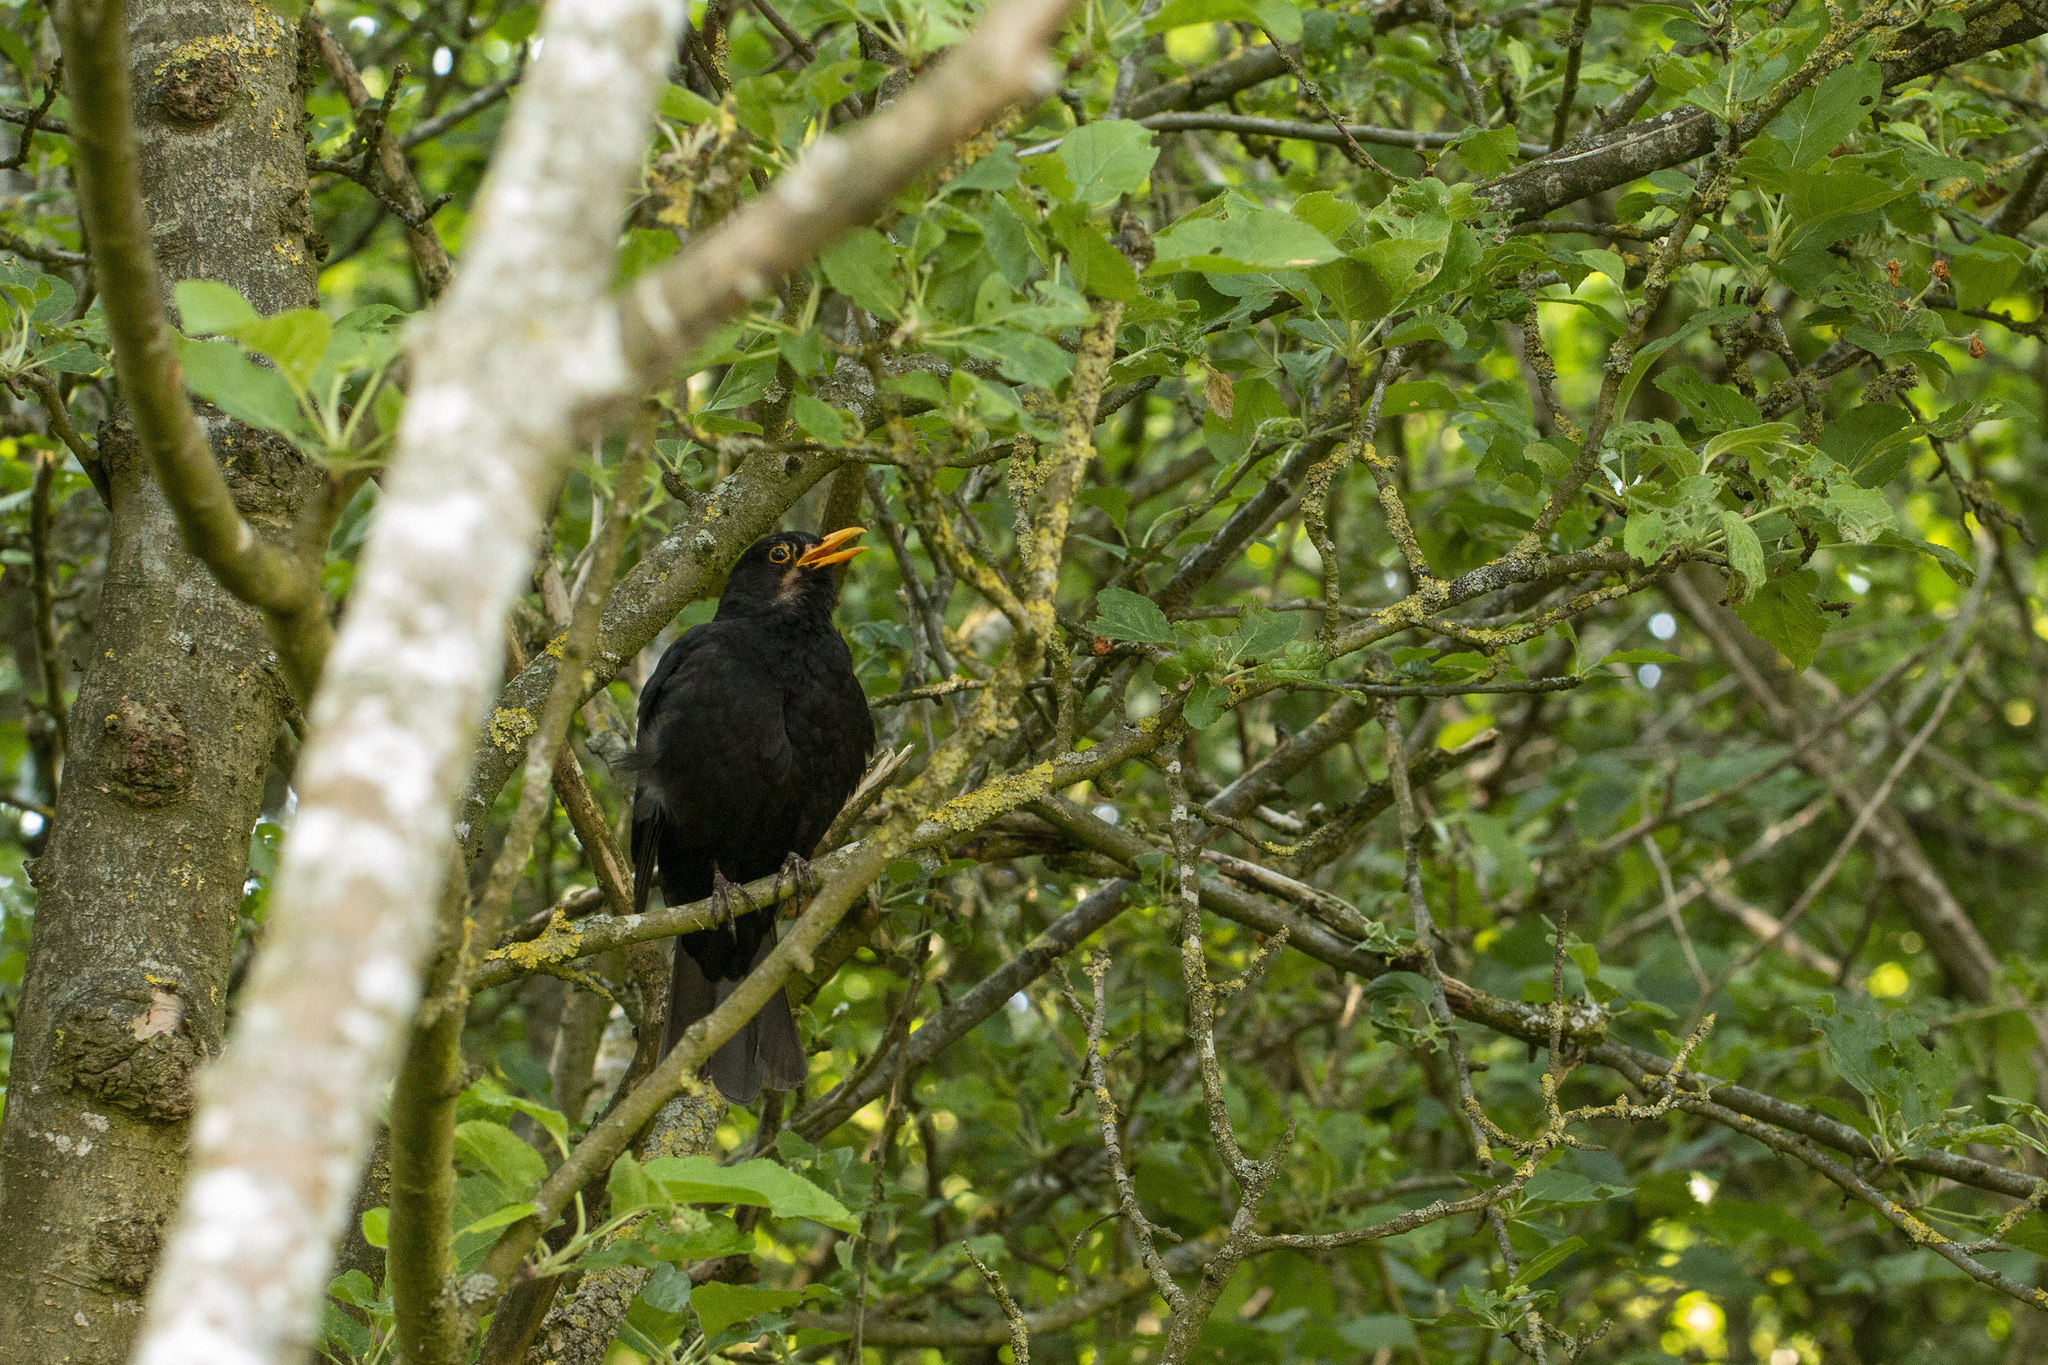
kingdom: Animalia
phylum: Chordata
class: Aves
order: Passeriformes
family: Turdidae
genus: Turdus
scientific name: Turdus merula
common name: Common blackbird
